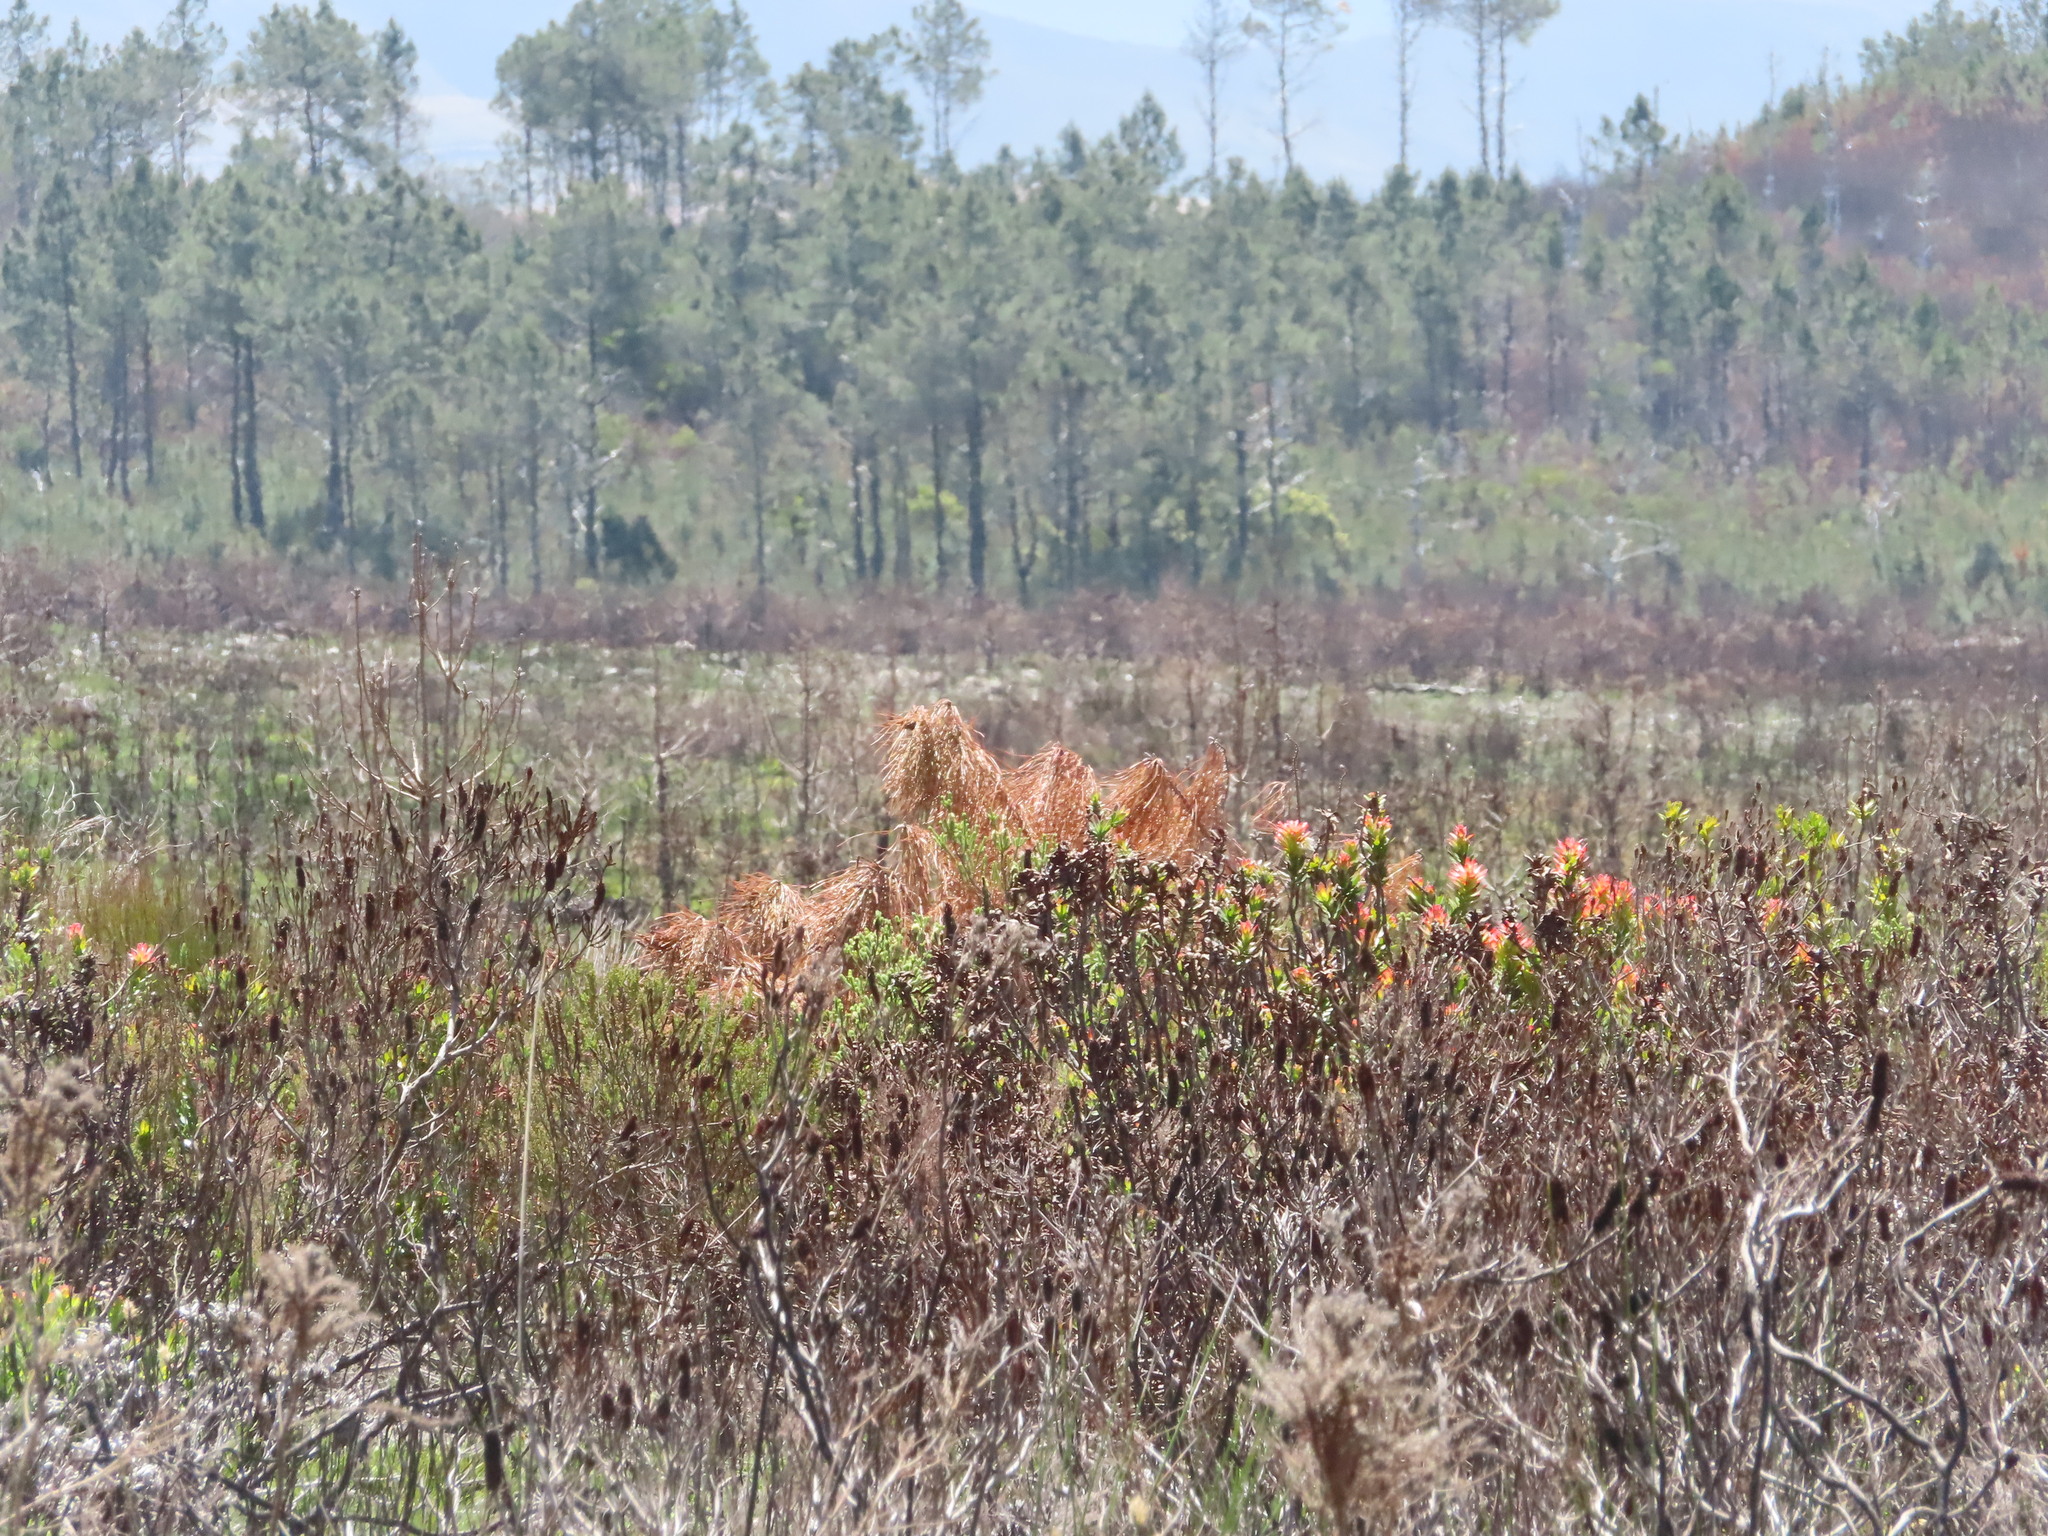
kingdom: Plantae
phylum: Tracheophyta
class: Magnoliopsida
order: Proteales
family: Proteaceae
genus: Mimetes
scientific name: Mimetes cucullatus
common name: Common pagoda
